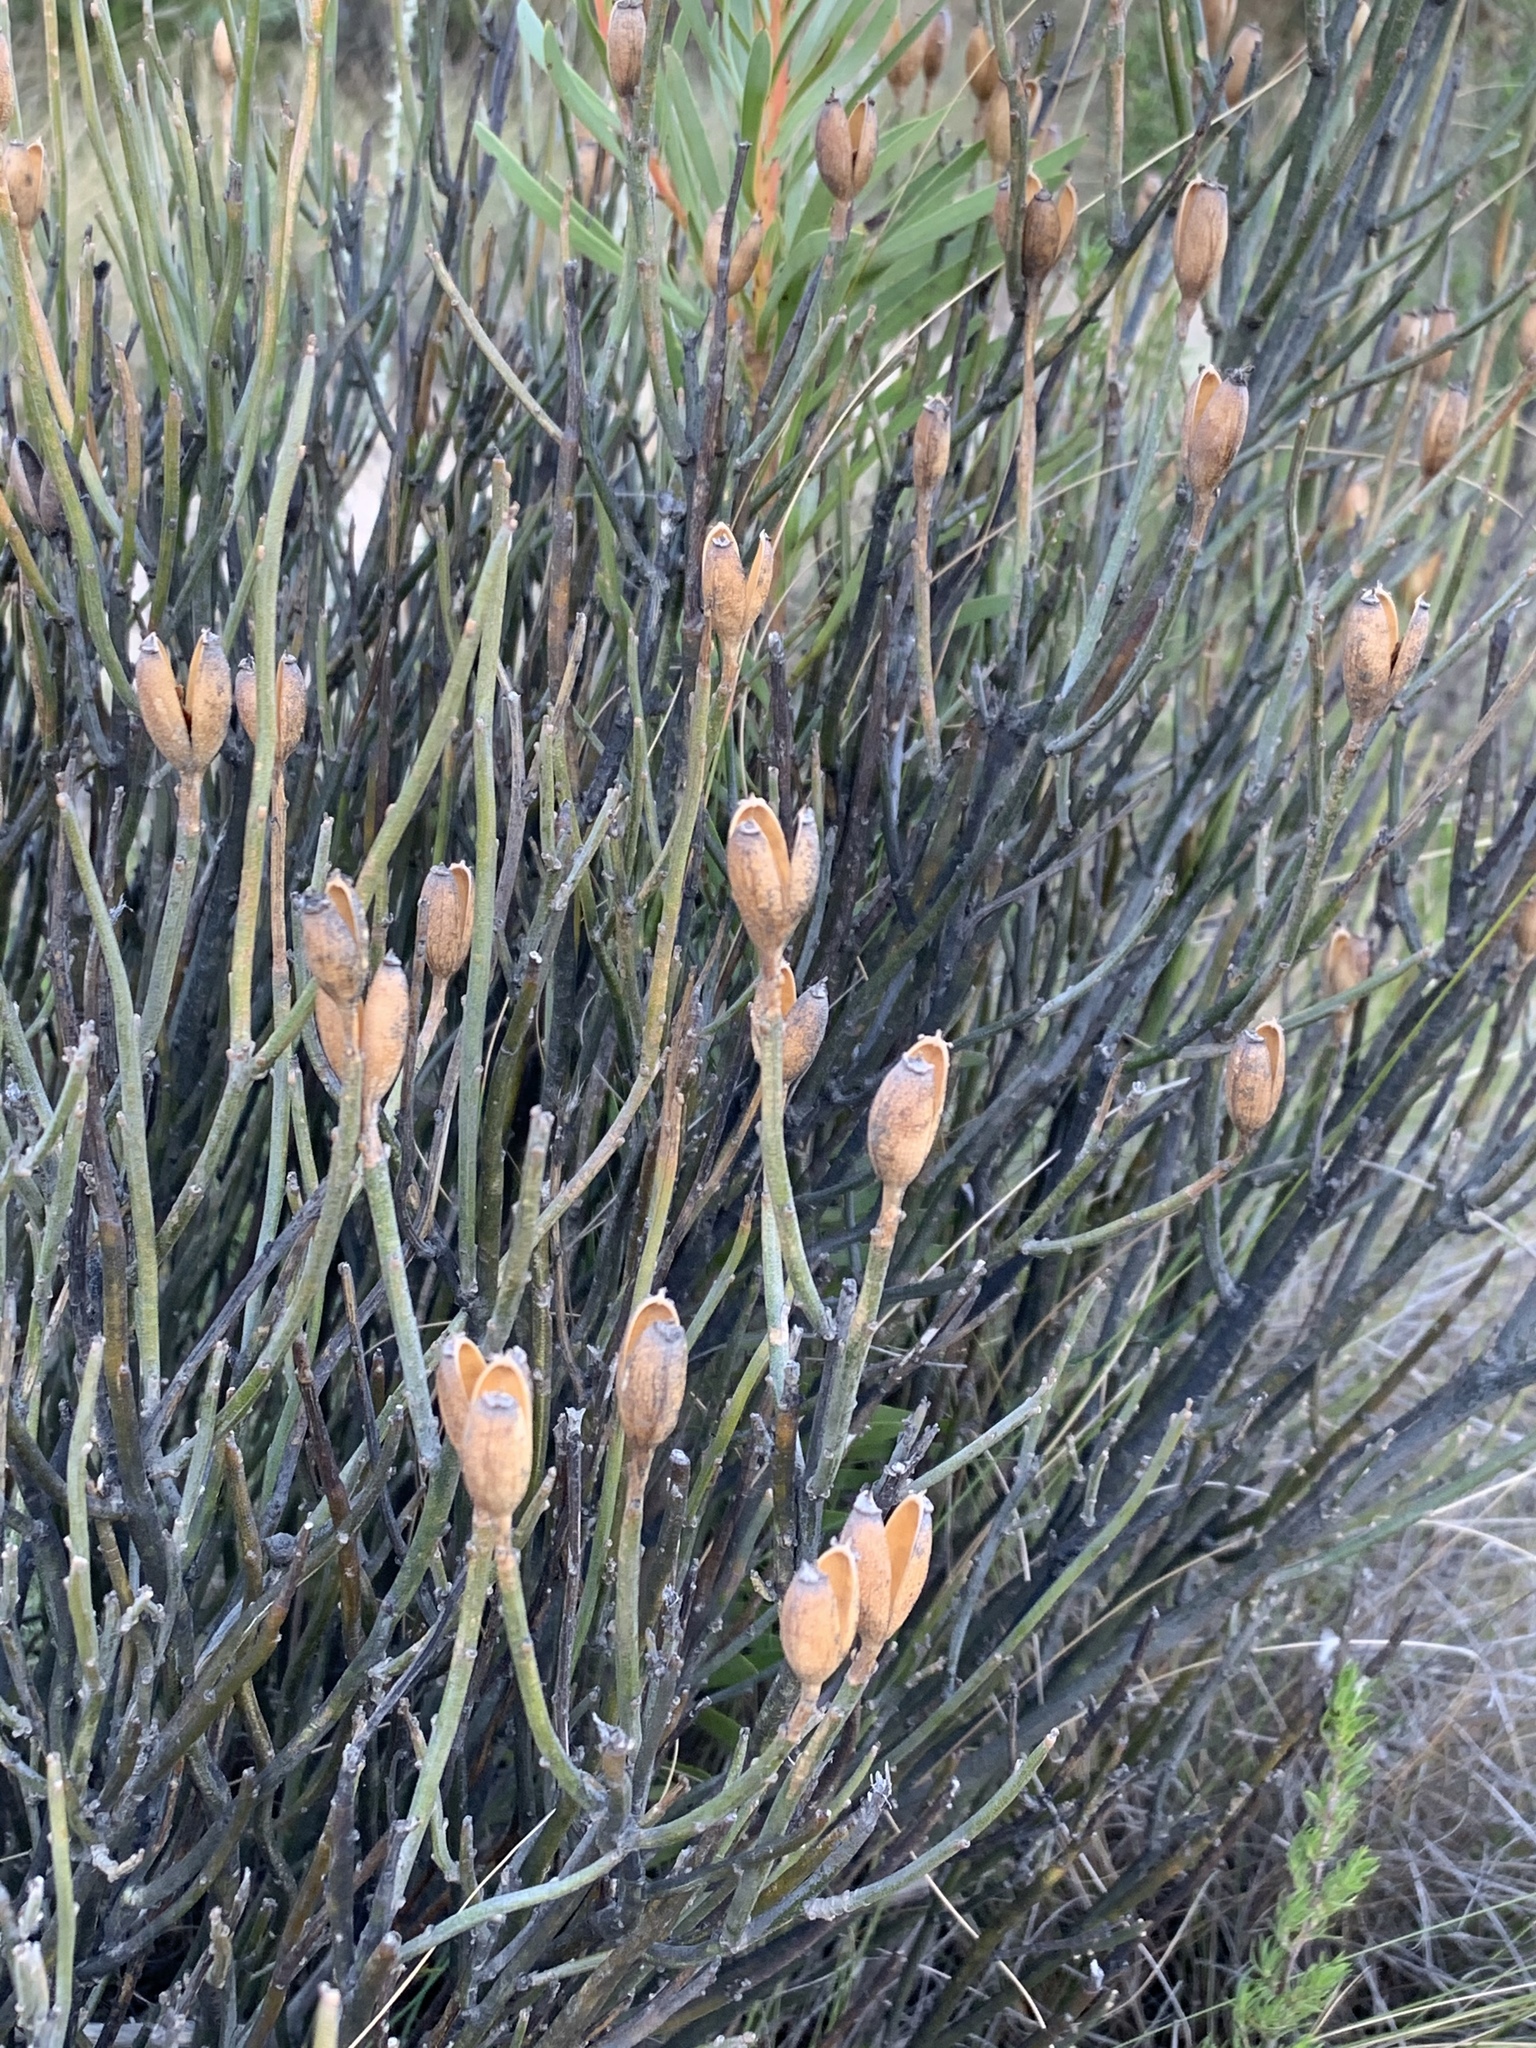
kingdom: Plantae
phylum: Tracheophyta
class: Magnoliopsida
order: Solanales
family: Montiniaceae
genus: Montinia
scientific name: Montinia caryophyllacea
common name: Wild clove-bush
